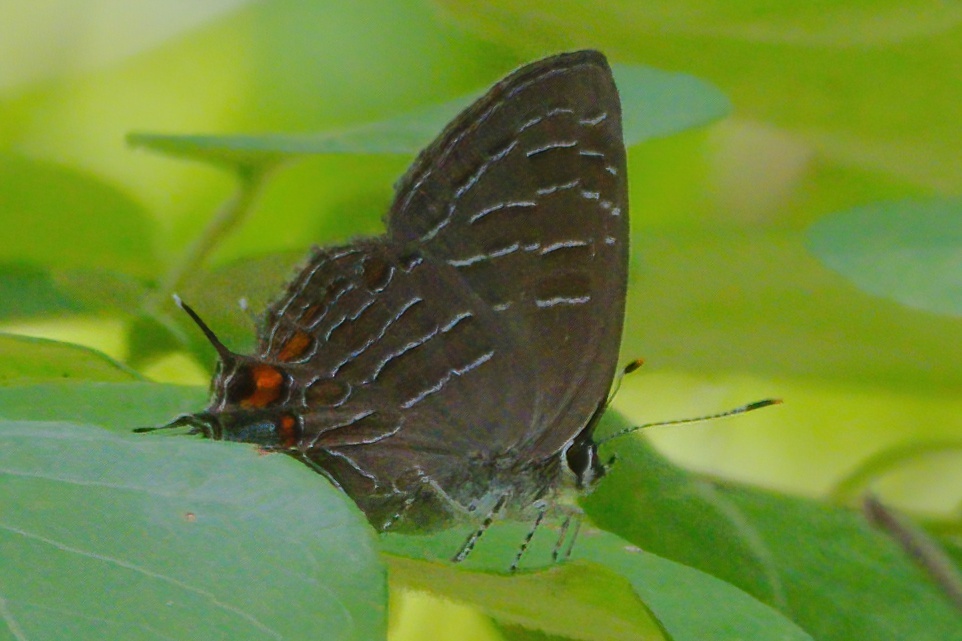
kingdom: Animalia
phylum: Arthropoda
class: Insecta
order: Lepidoptera
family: Lycaenidae
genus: Satyrium
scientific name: Satyrium liparops
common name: Striped hairstreak
